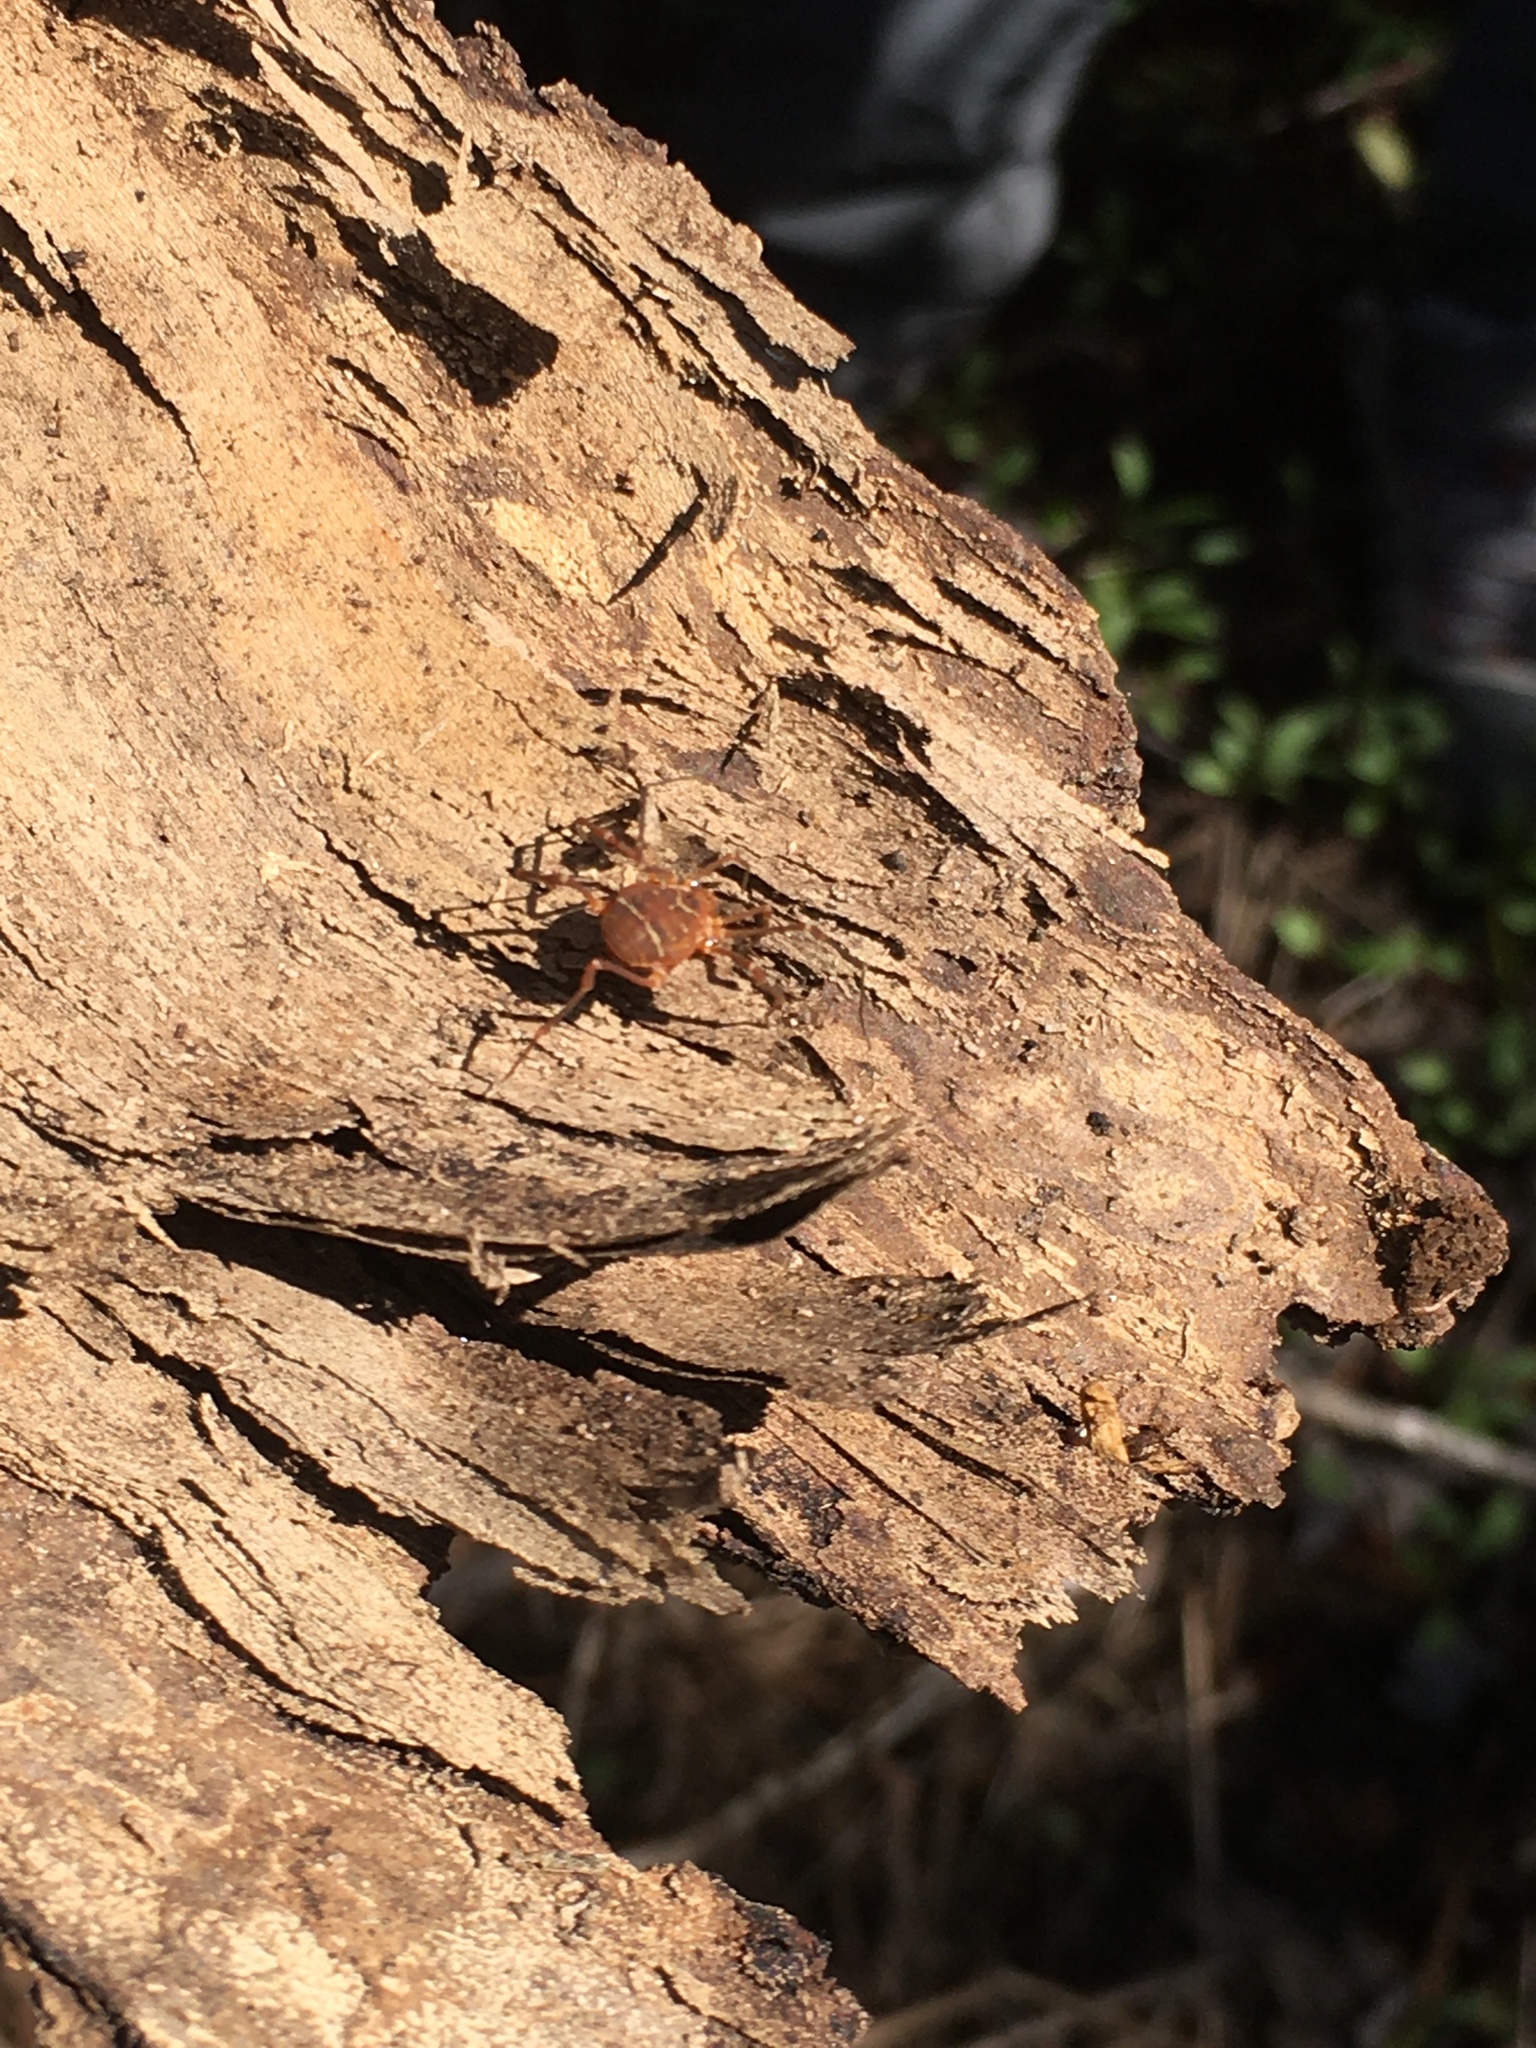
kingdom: Animalia
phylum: Arthropoda
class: Arachnida
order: Opiliones
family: Cosmetidae
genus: Libitioides
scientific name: Libitioides sayi
